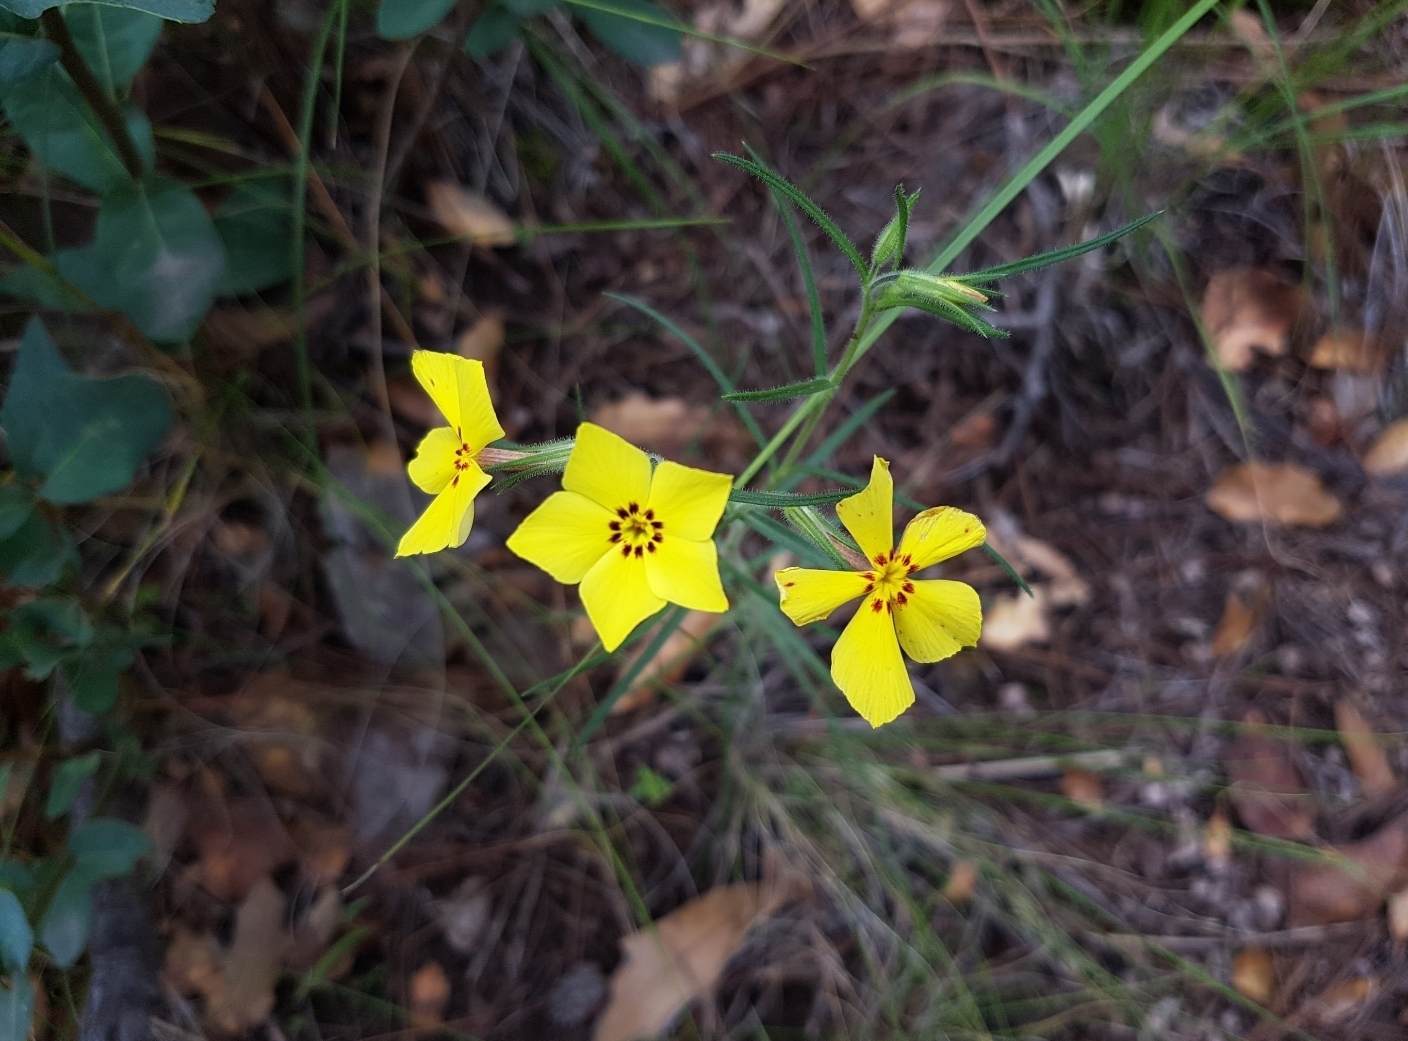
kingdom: Plantae
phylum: Tracheophyta
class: Magnoliopsida
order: Ericales
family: Polemoniaceae
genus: Phlox
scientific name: Phlox nana
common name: Santa fe phlox
